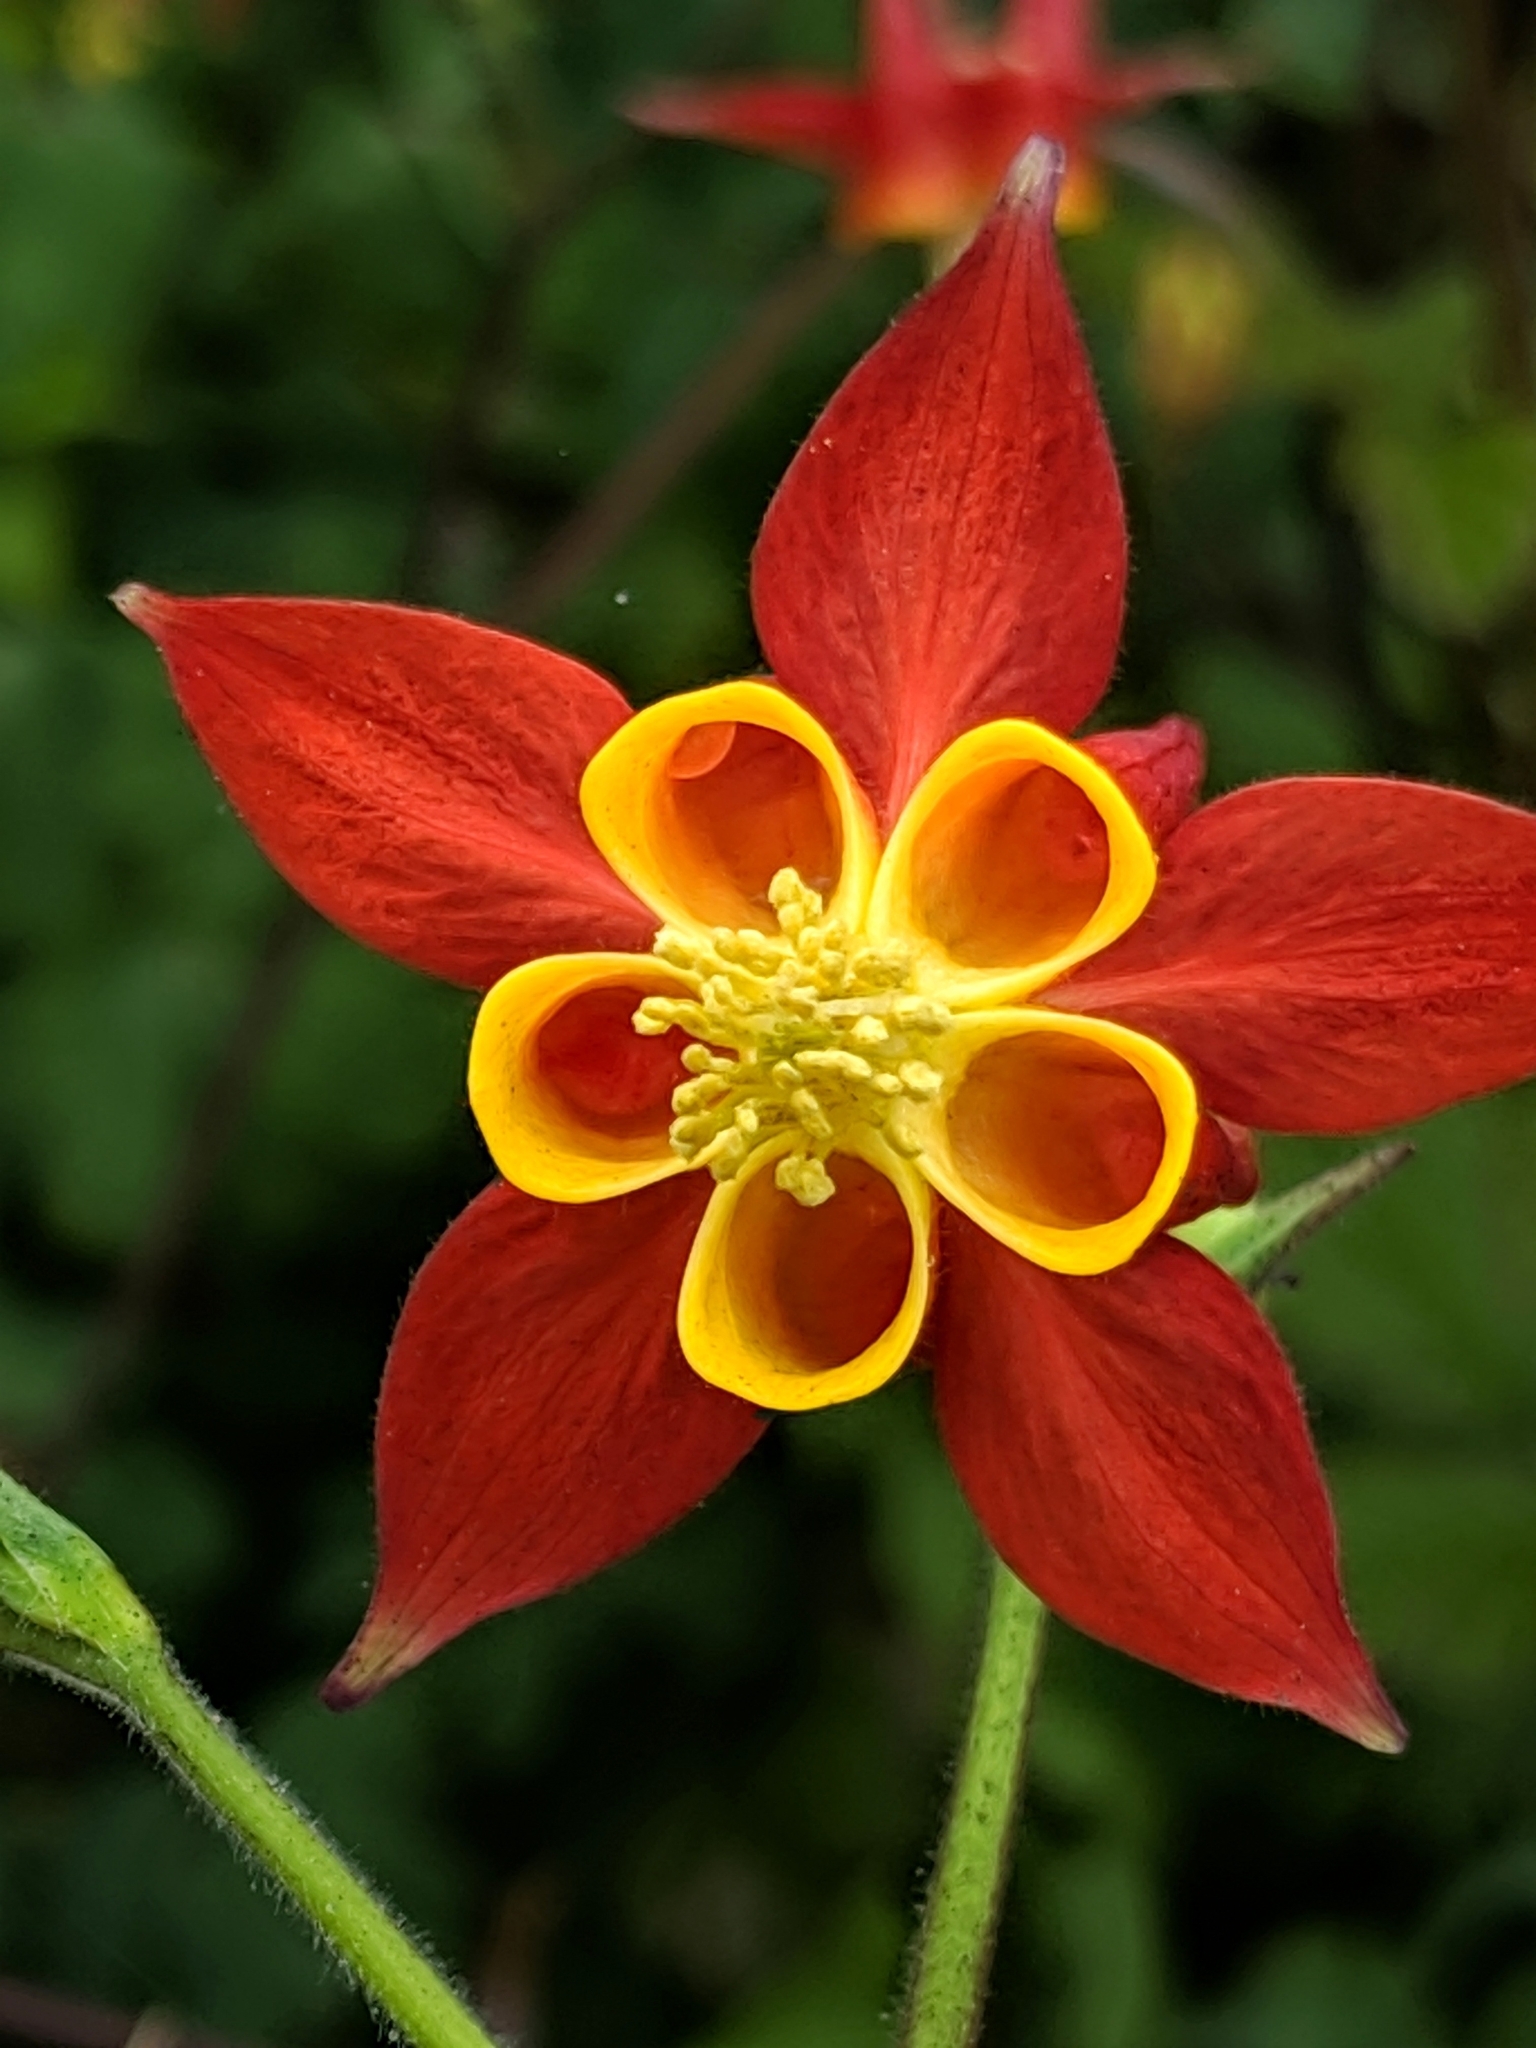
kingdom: Plantae
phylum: Tracheophyta
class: Magnoliopsida
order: Ranunculales
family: Ranunculaceae
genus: Aquilegia
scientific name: Aquilegia formosa
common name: Sitka columbine
